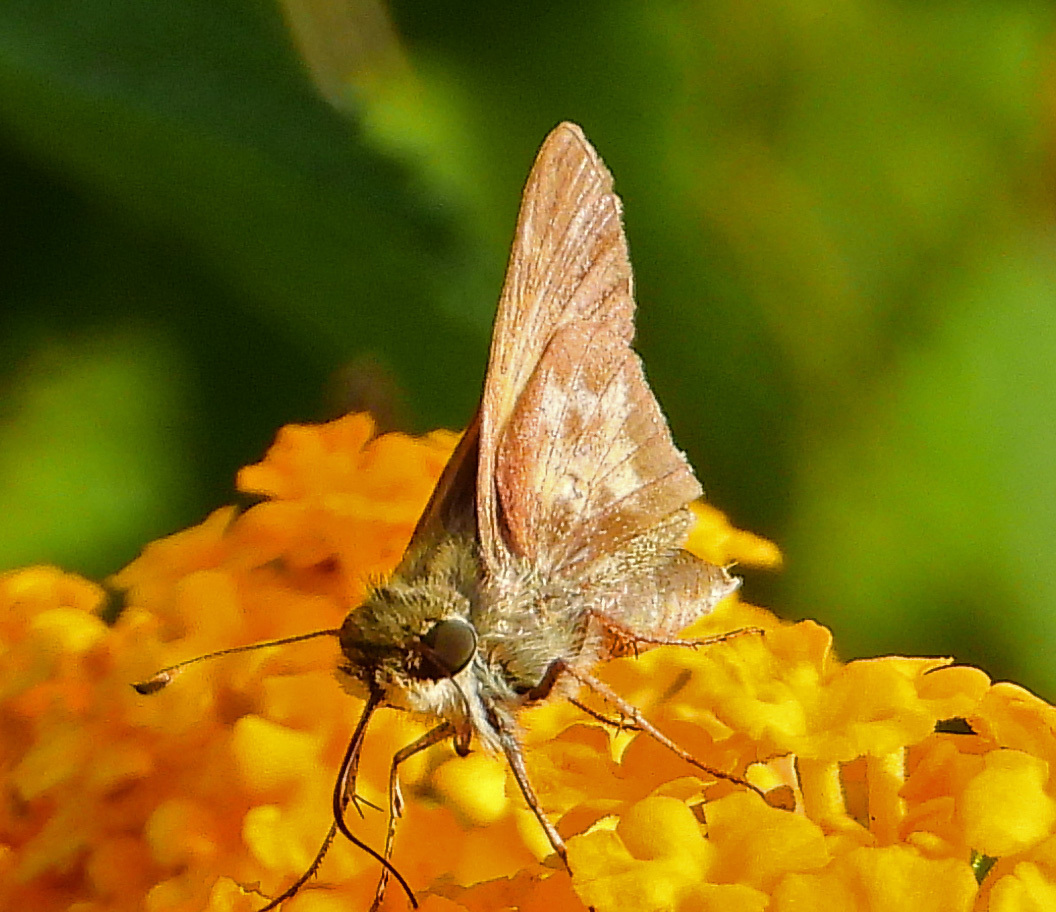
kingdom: Animalia
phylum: Arthropoda
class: Insecta
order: Lepidoptera
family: Hesperiidae
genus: Atalopedes
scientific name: Atalopedes
